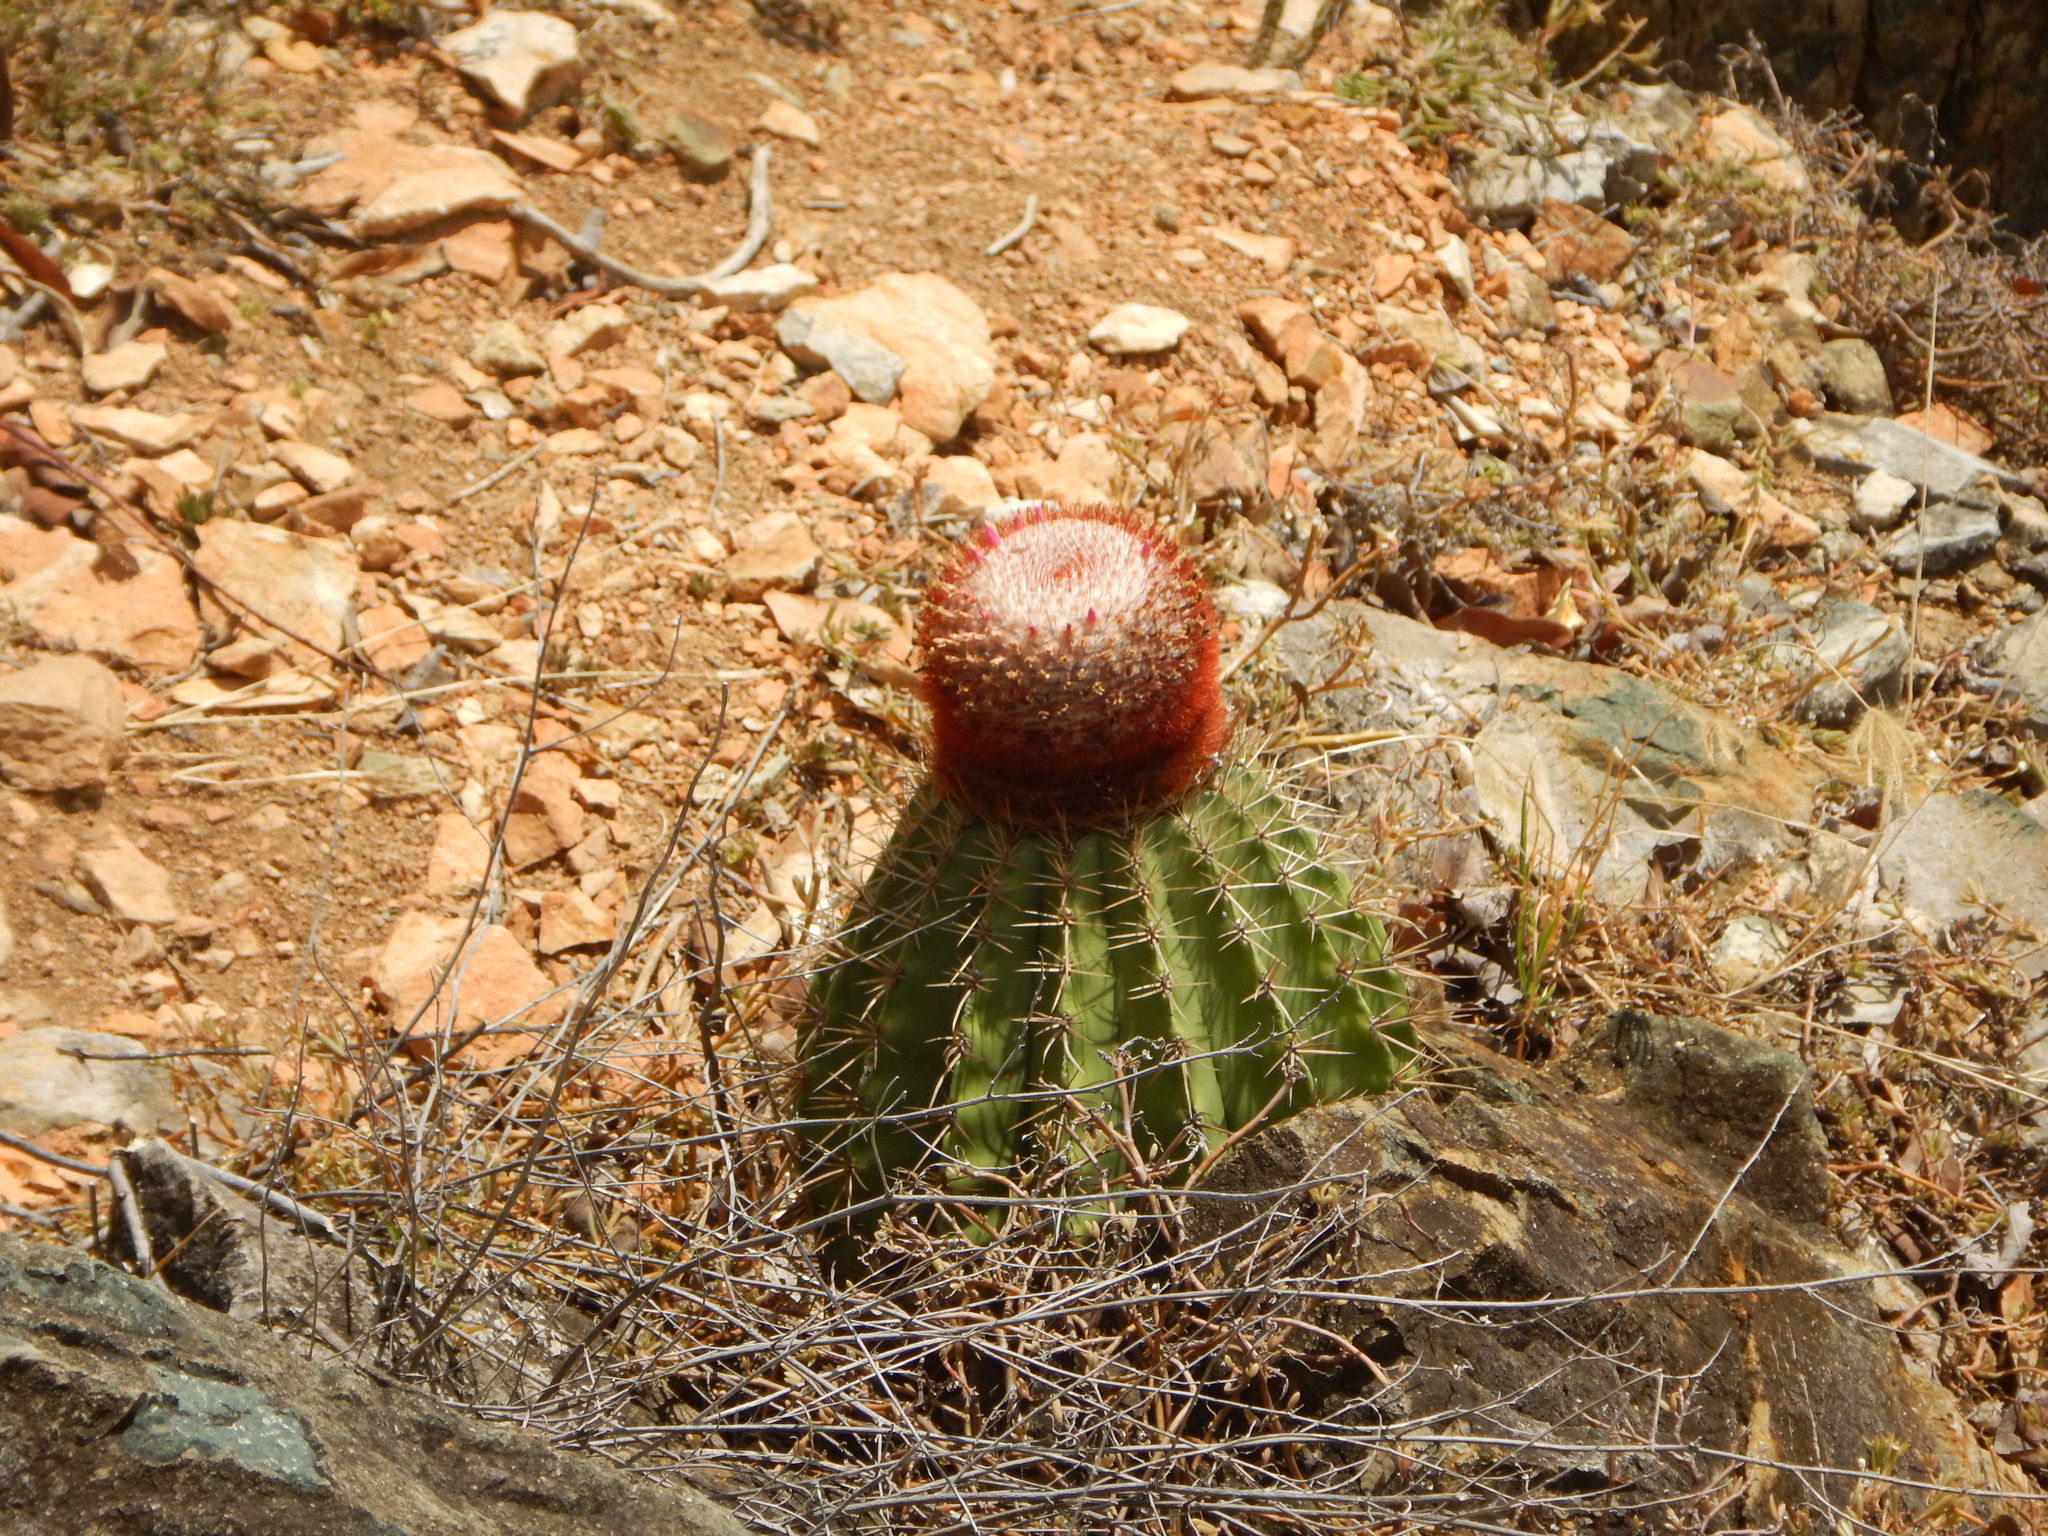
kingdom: Plantae
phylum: Tracheophyta
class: Magnoliopsida
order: Caryophyllales
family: Cactaceae
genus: Melocactus
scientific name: Melocactus intortus
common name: Barrel cactus
